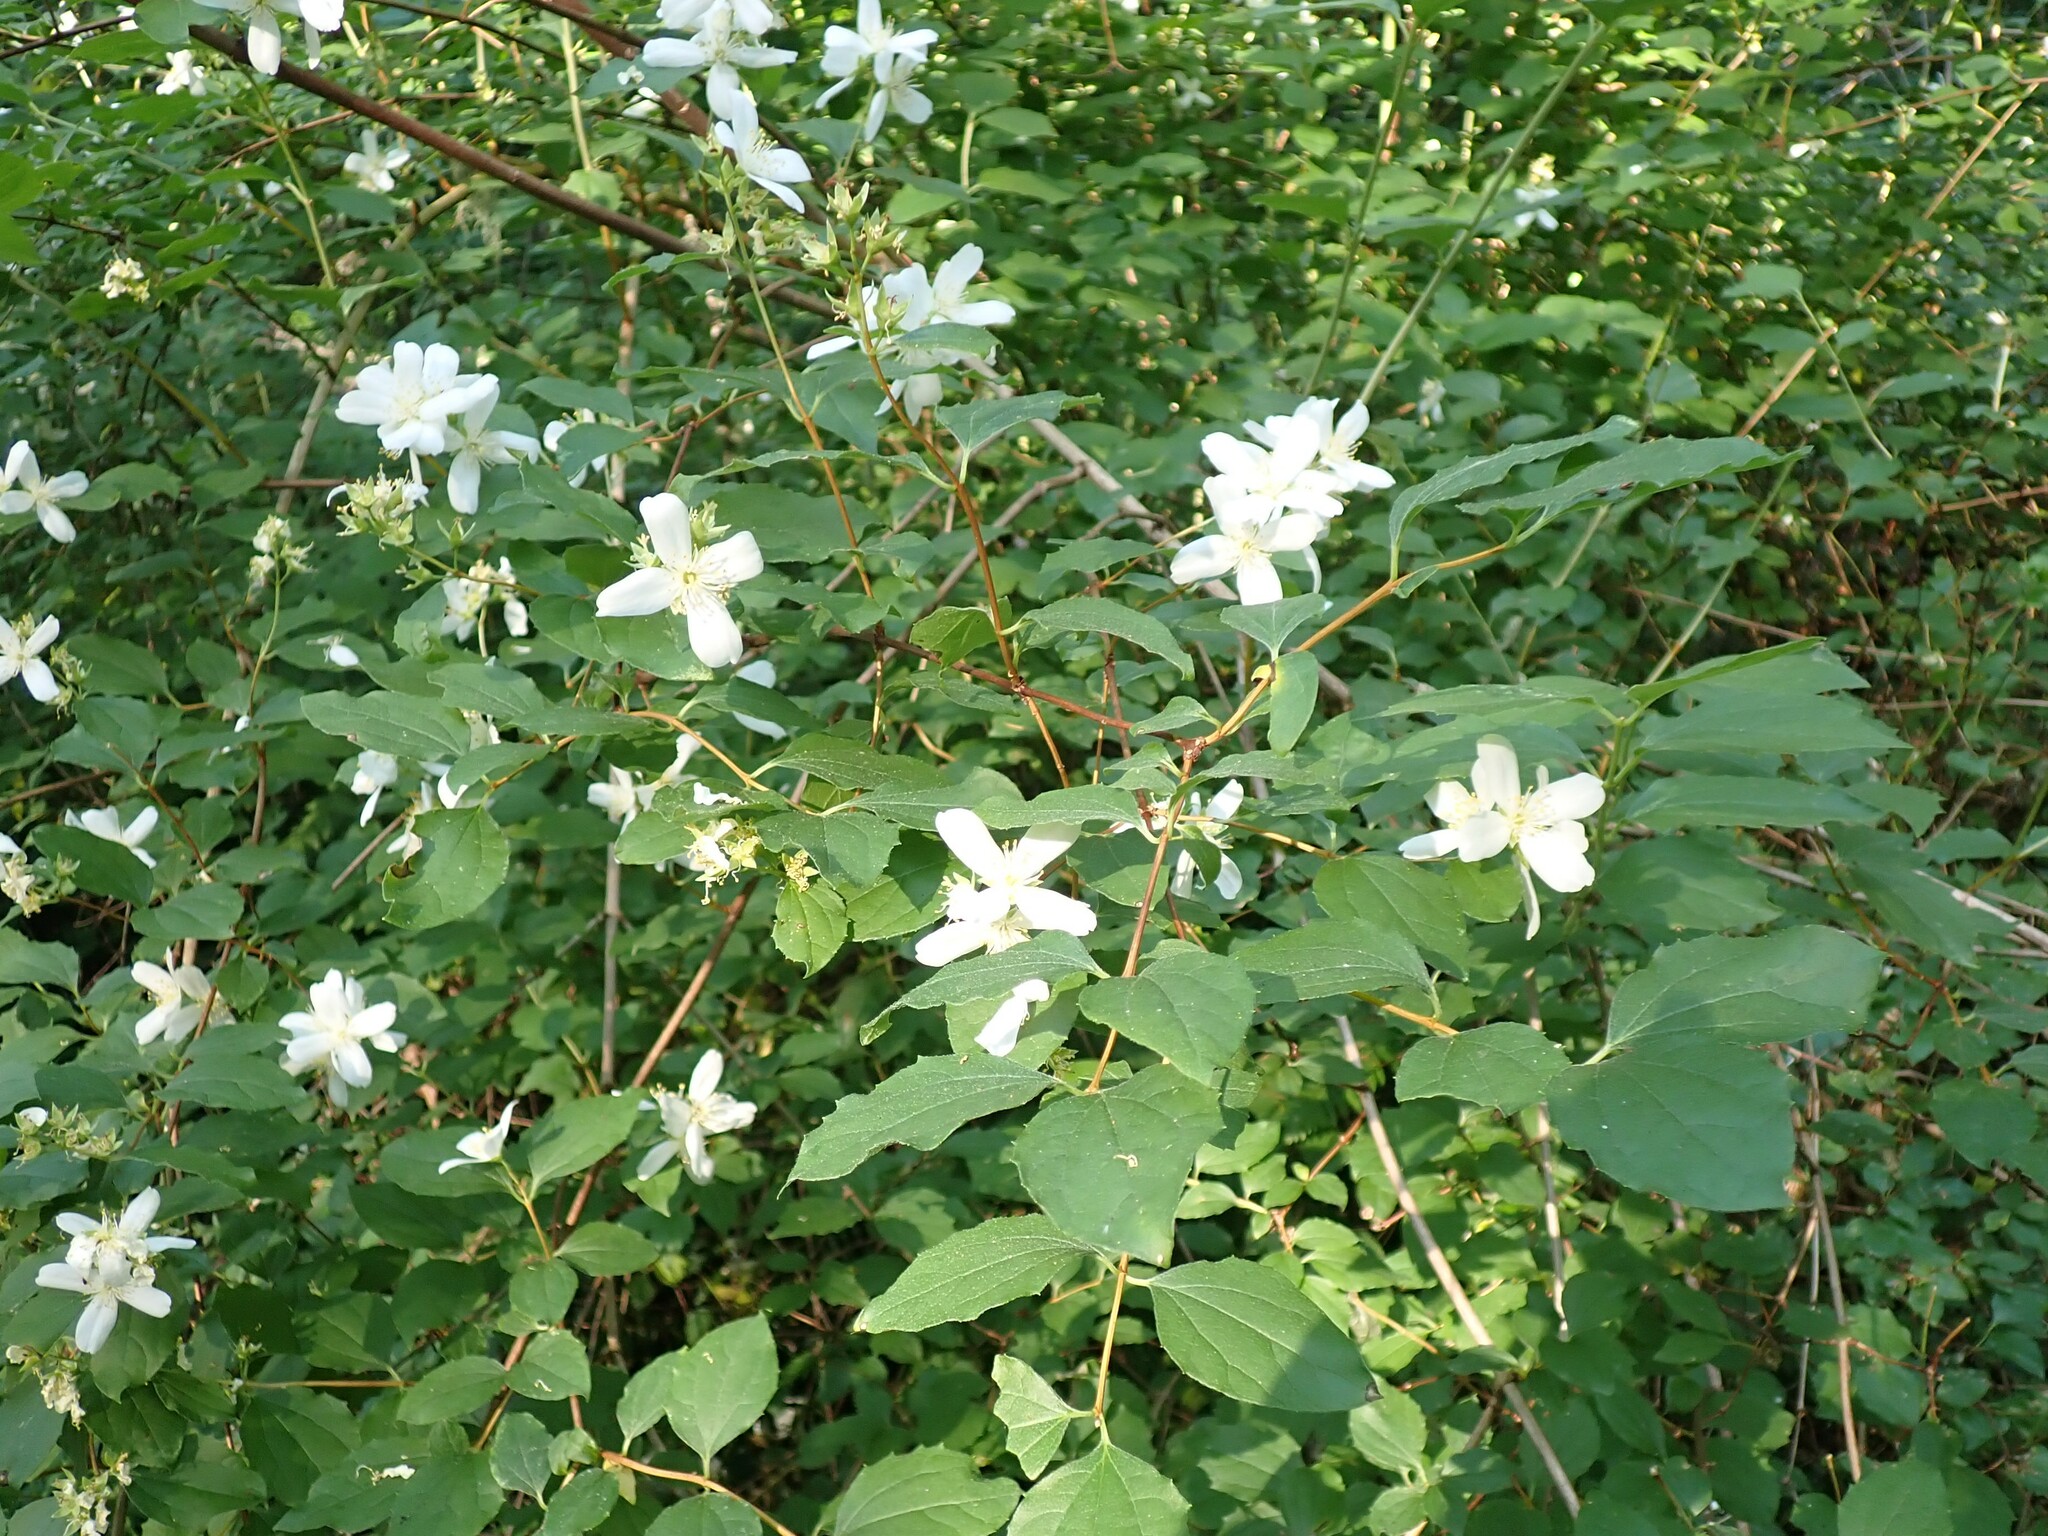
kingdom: Plantae
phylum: Tracheophyta
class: Magnoliopsida
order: Cornales
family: Hydrangeaceae
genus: Philadelphus
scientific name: Philadelphus lewisii
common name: Lewis's mock orange
